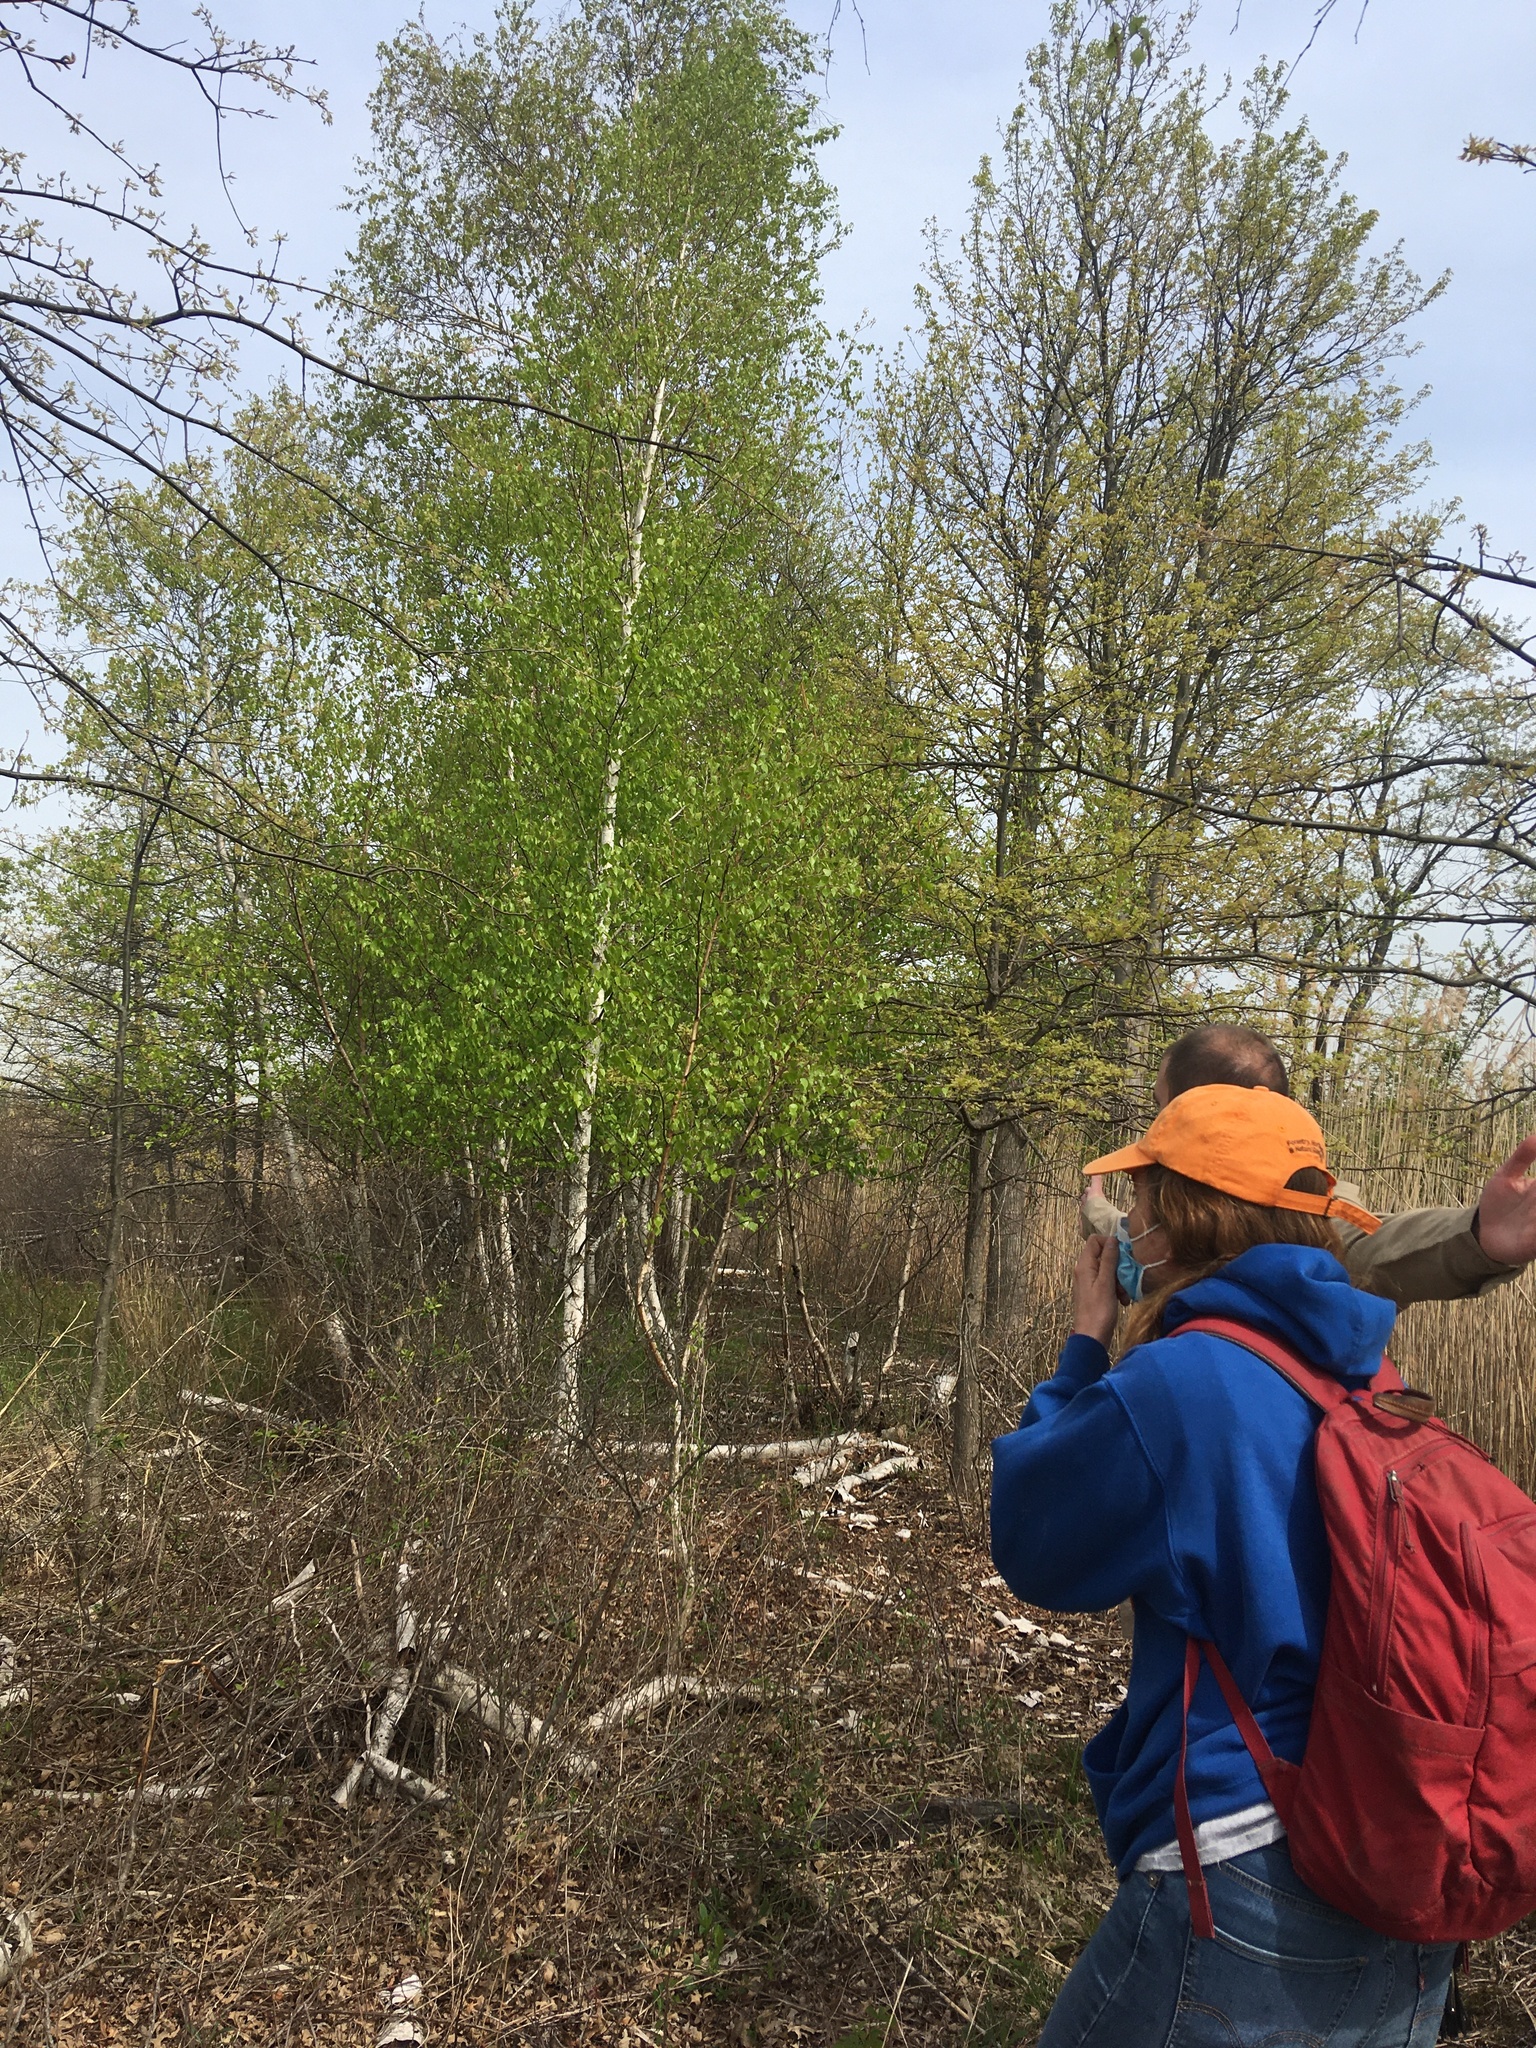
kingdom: Plantae
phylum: Tracheophyta
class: Magnoliopsida
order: Fagales
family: Betulaceae
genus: Betula
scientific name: Betula populifolia
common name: Fire birch
